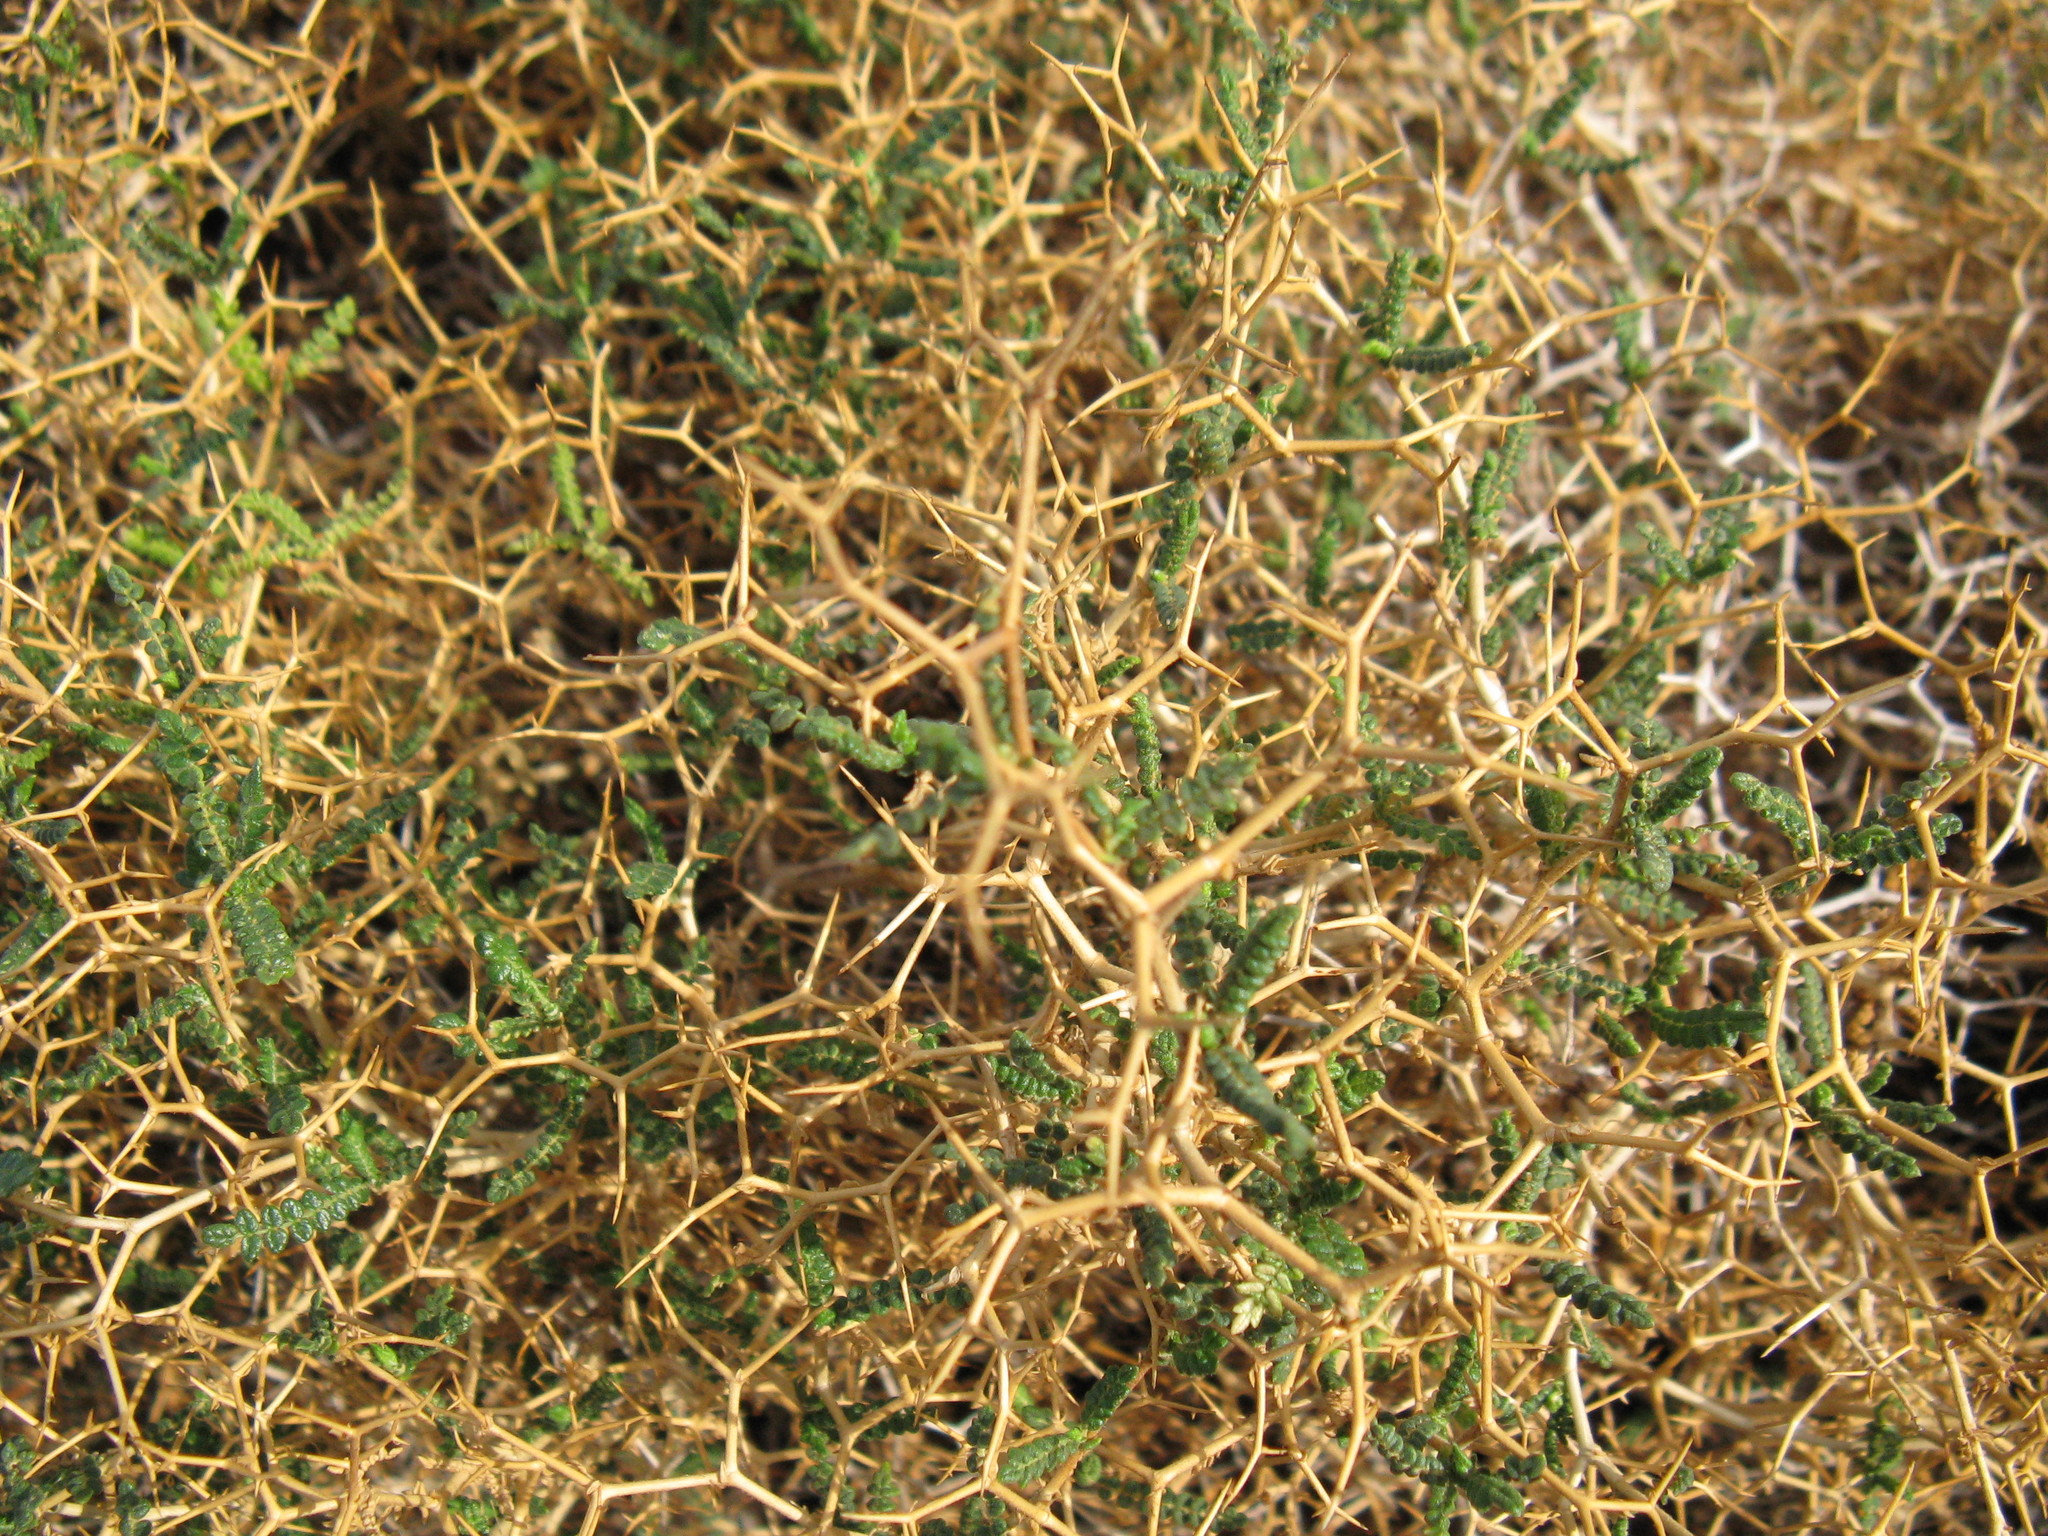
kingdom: Plantae
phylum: Tracheophyta
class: Magnoliopsida
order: Rosales
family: Rosaceae
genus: Sarcopoterium
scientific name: Sarcopoterium spinosum
